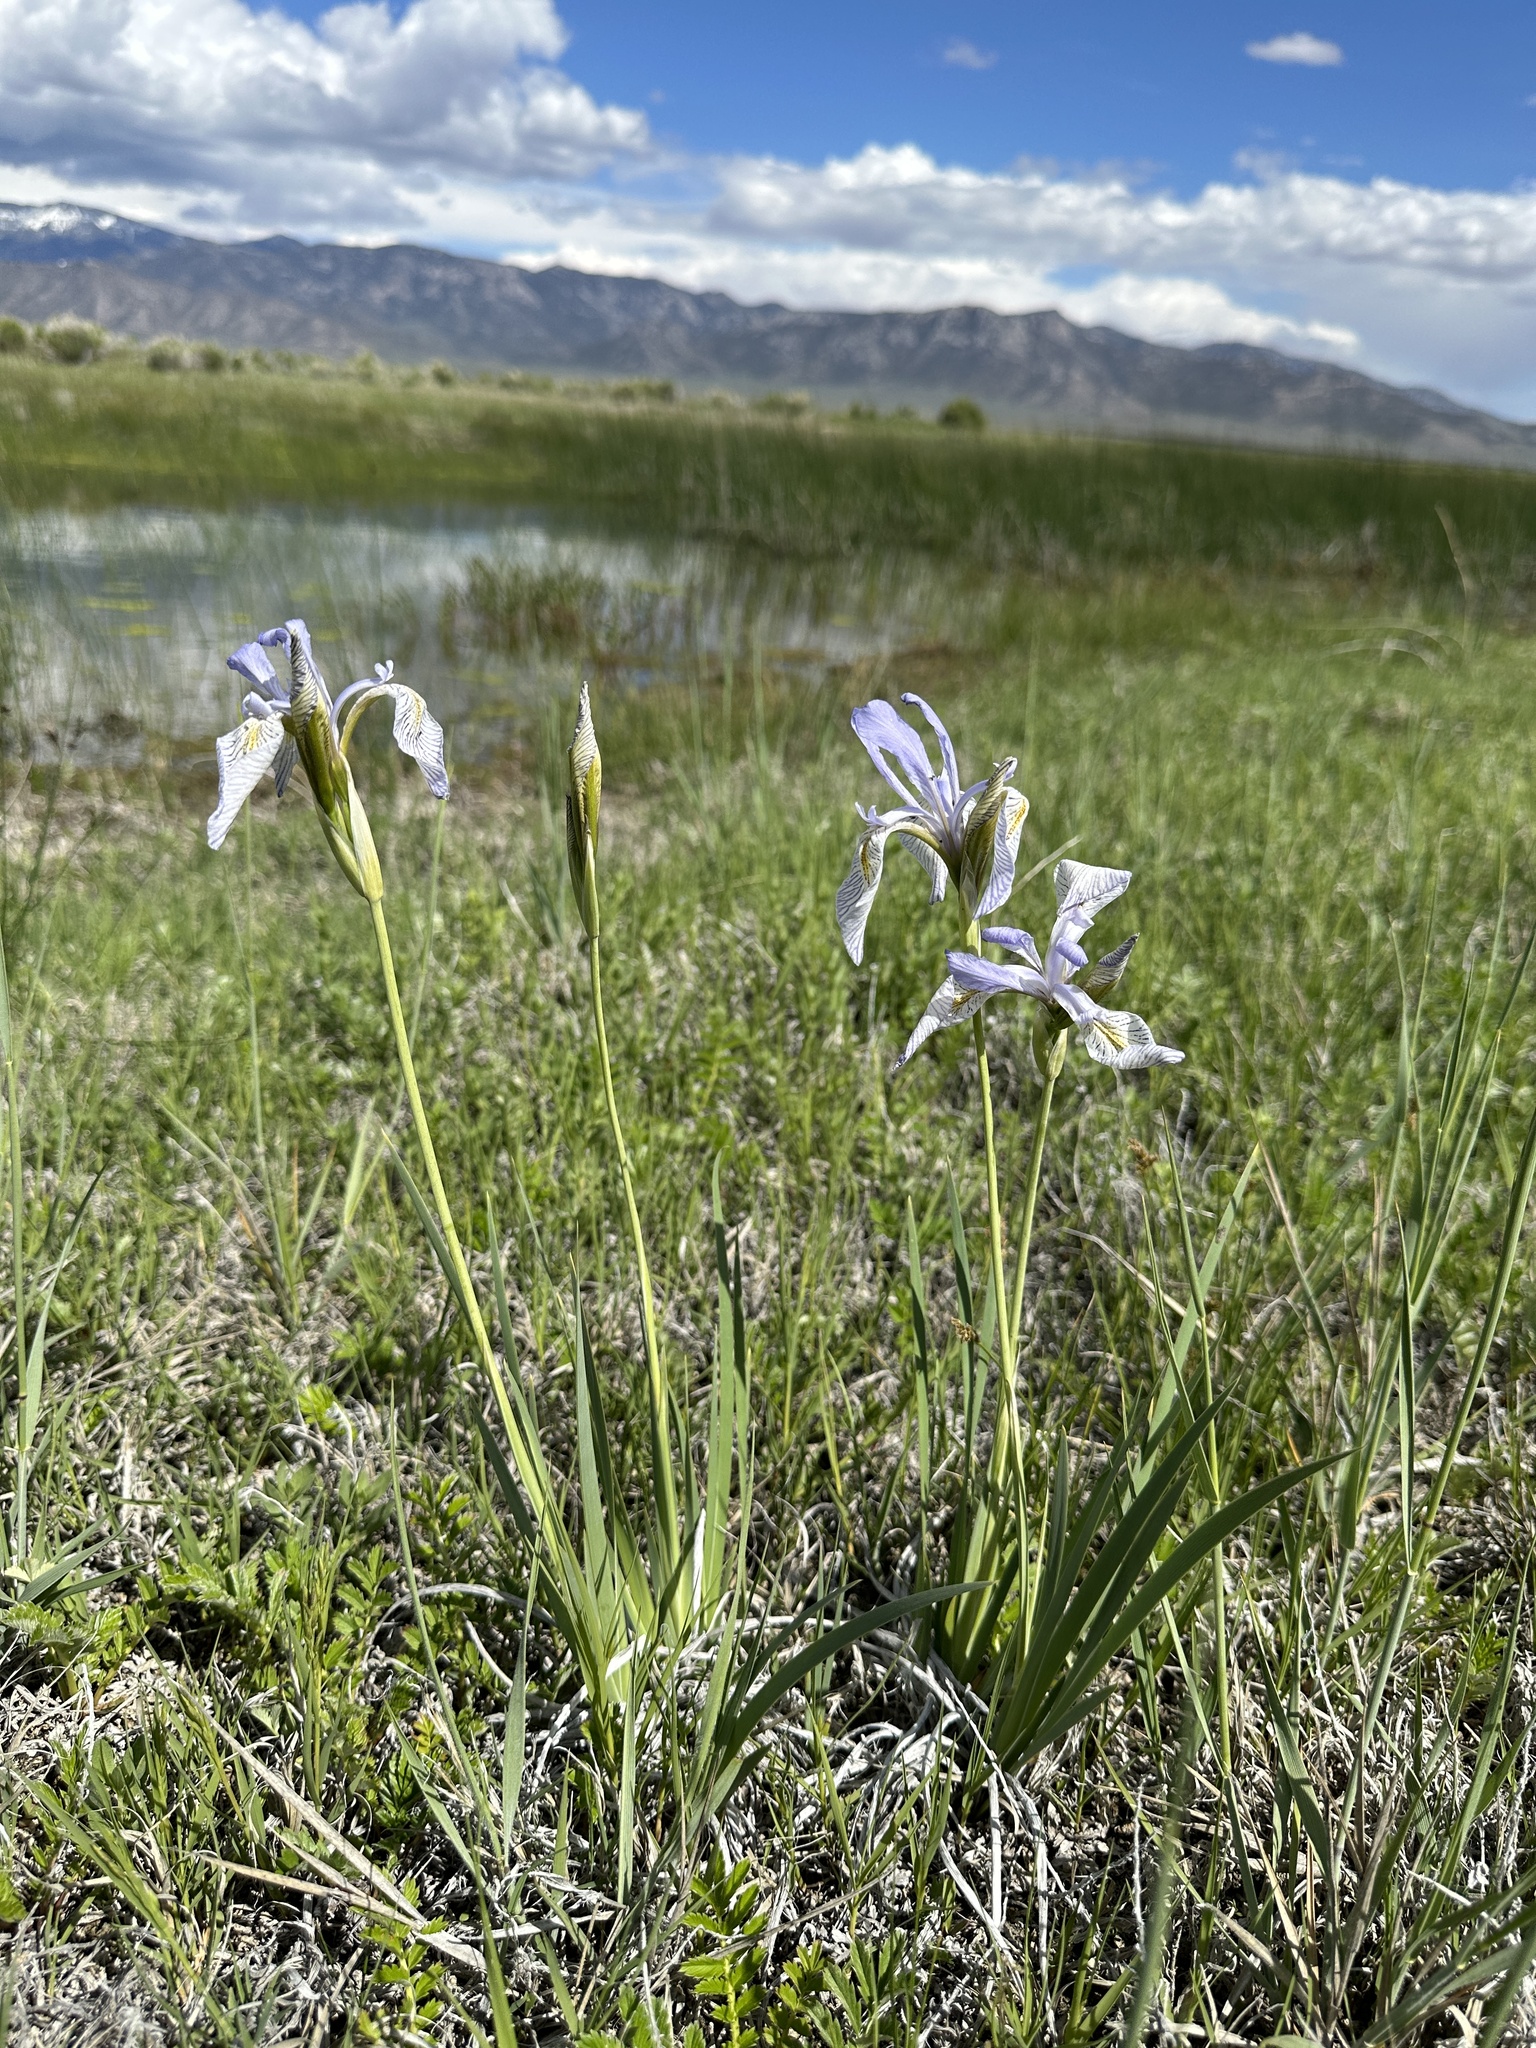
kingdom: Plantae
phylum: Tracheophyta
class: Liliopsida
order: Asparagales
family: Iridaceae
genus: Iris
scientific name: Iris missouriensis
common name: Rocky mountain iris
